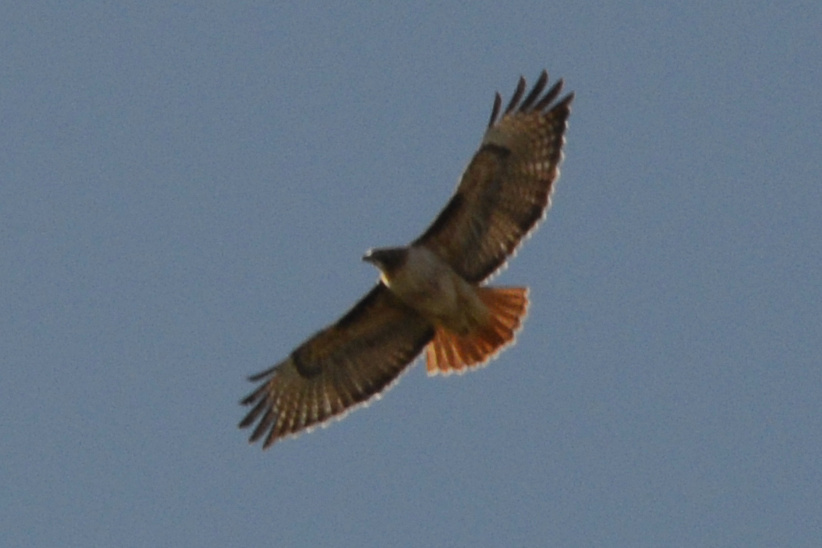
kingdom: Animalia
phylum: Chordata
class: Aves
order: Accipitriformes
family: Accipitridae
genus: Buteo
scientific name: Buteo jamaicensis
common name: Red-tailed hawk
